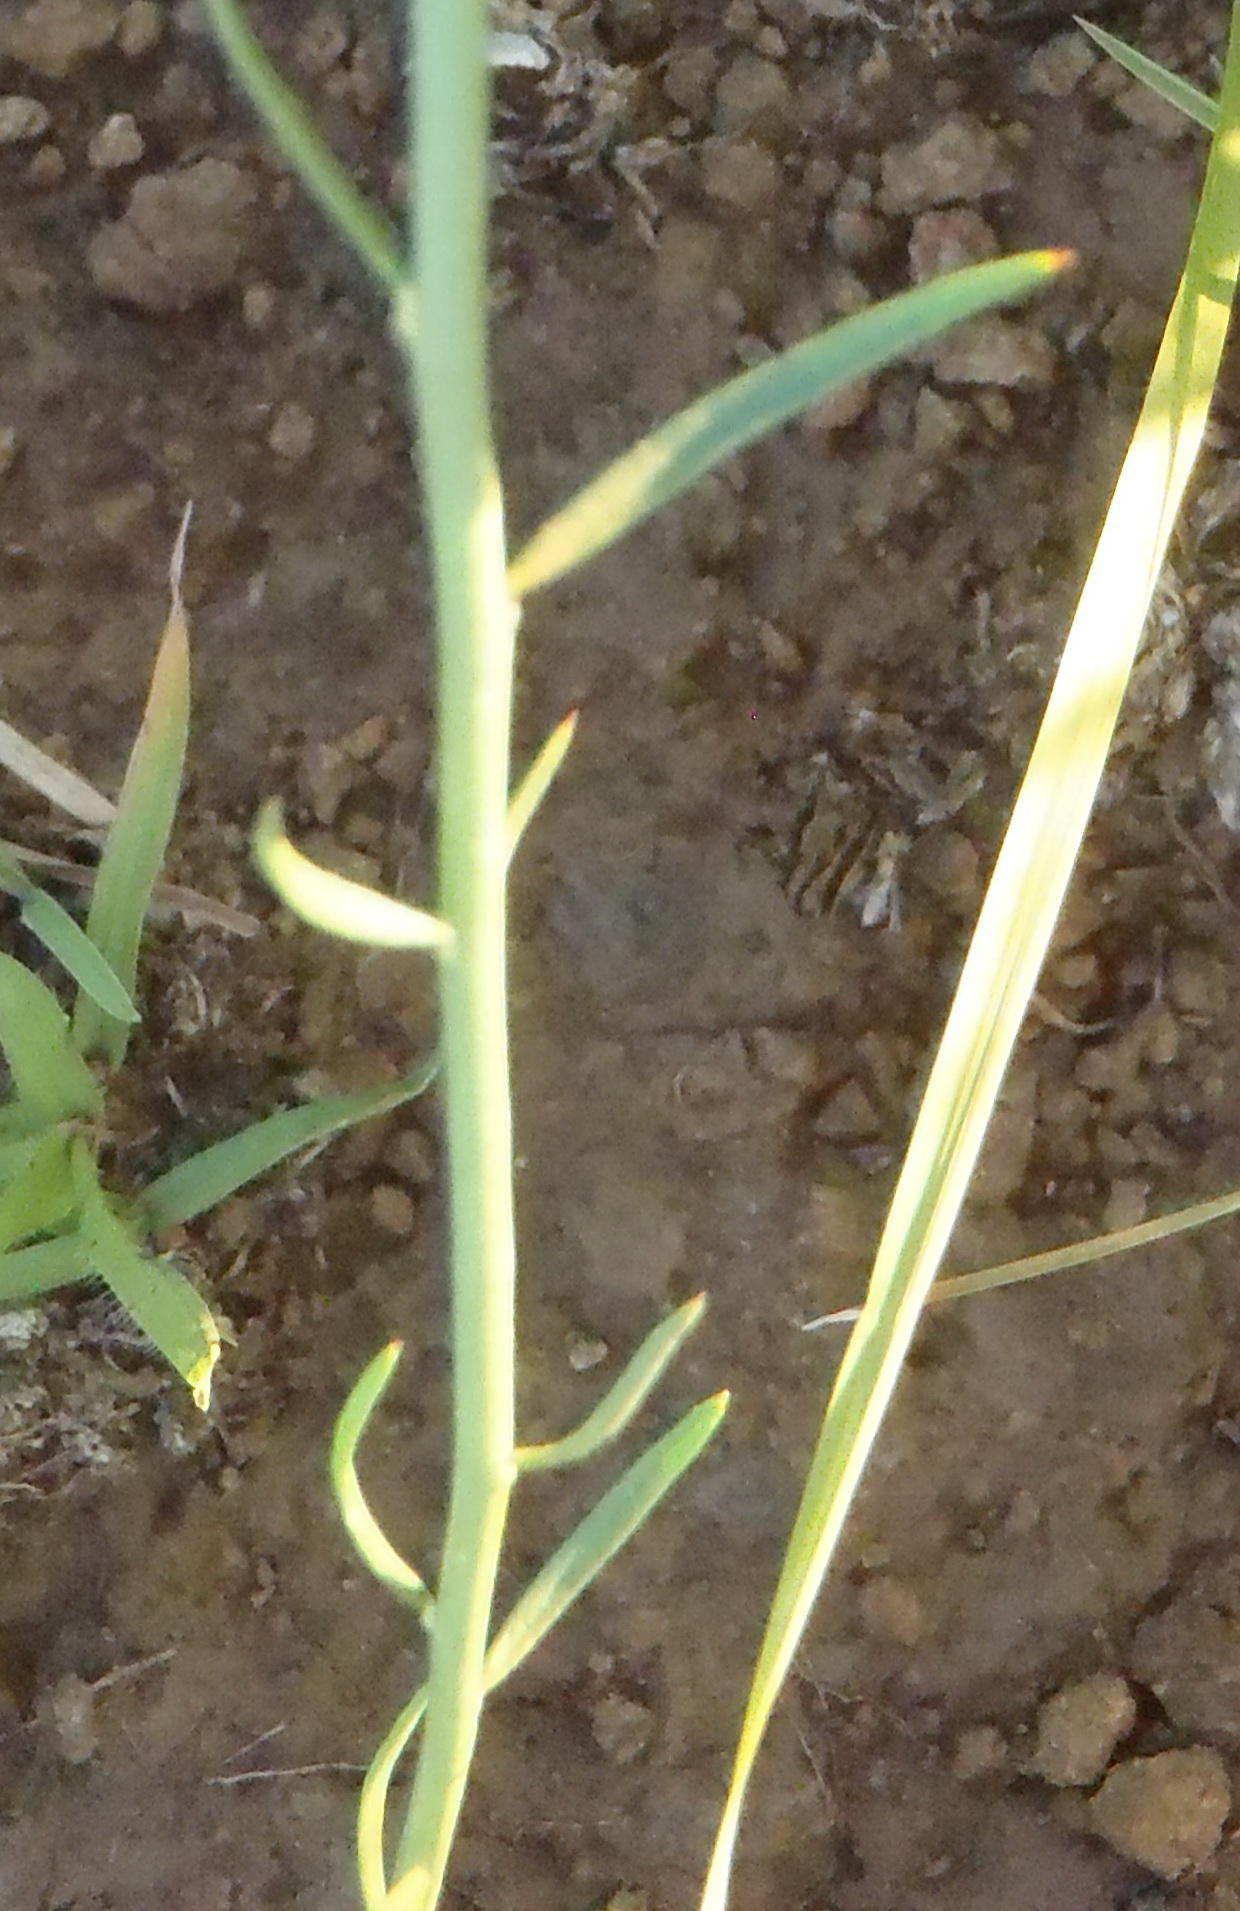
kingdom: Plantae
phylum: Tracheophyta
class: Magnoliopsida
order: Fabales
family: Polygalaceae
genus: Polygala
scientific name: Polygala hottentotta
